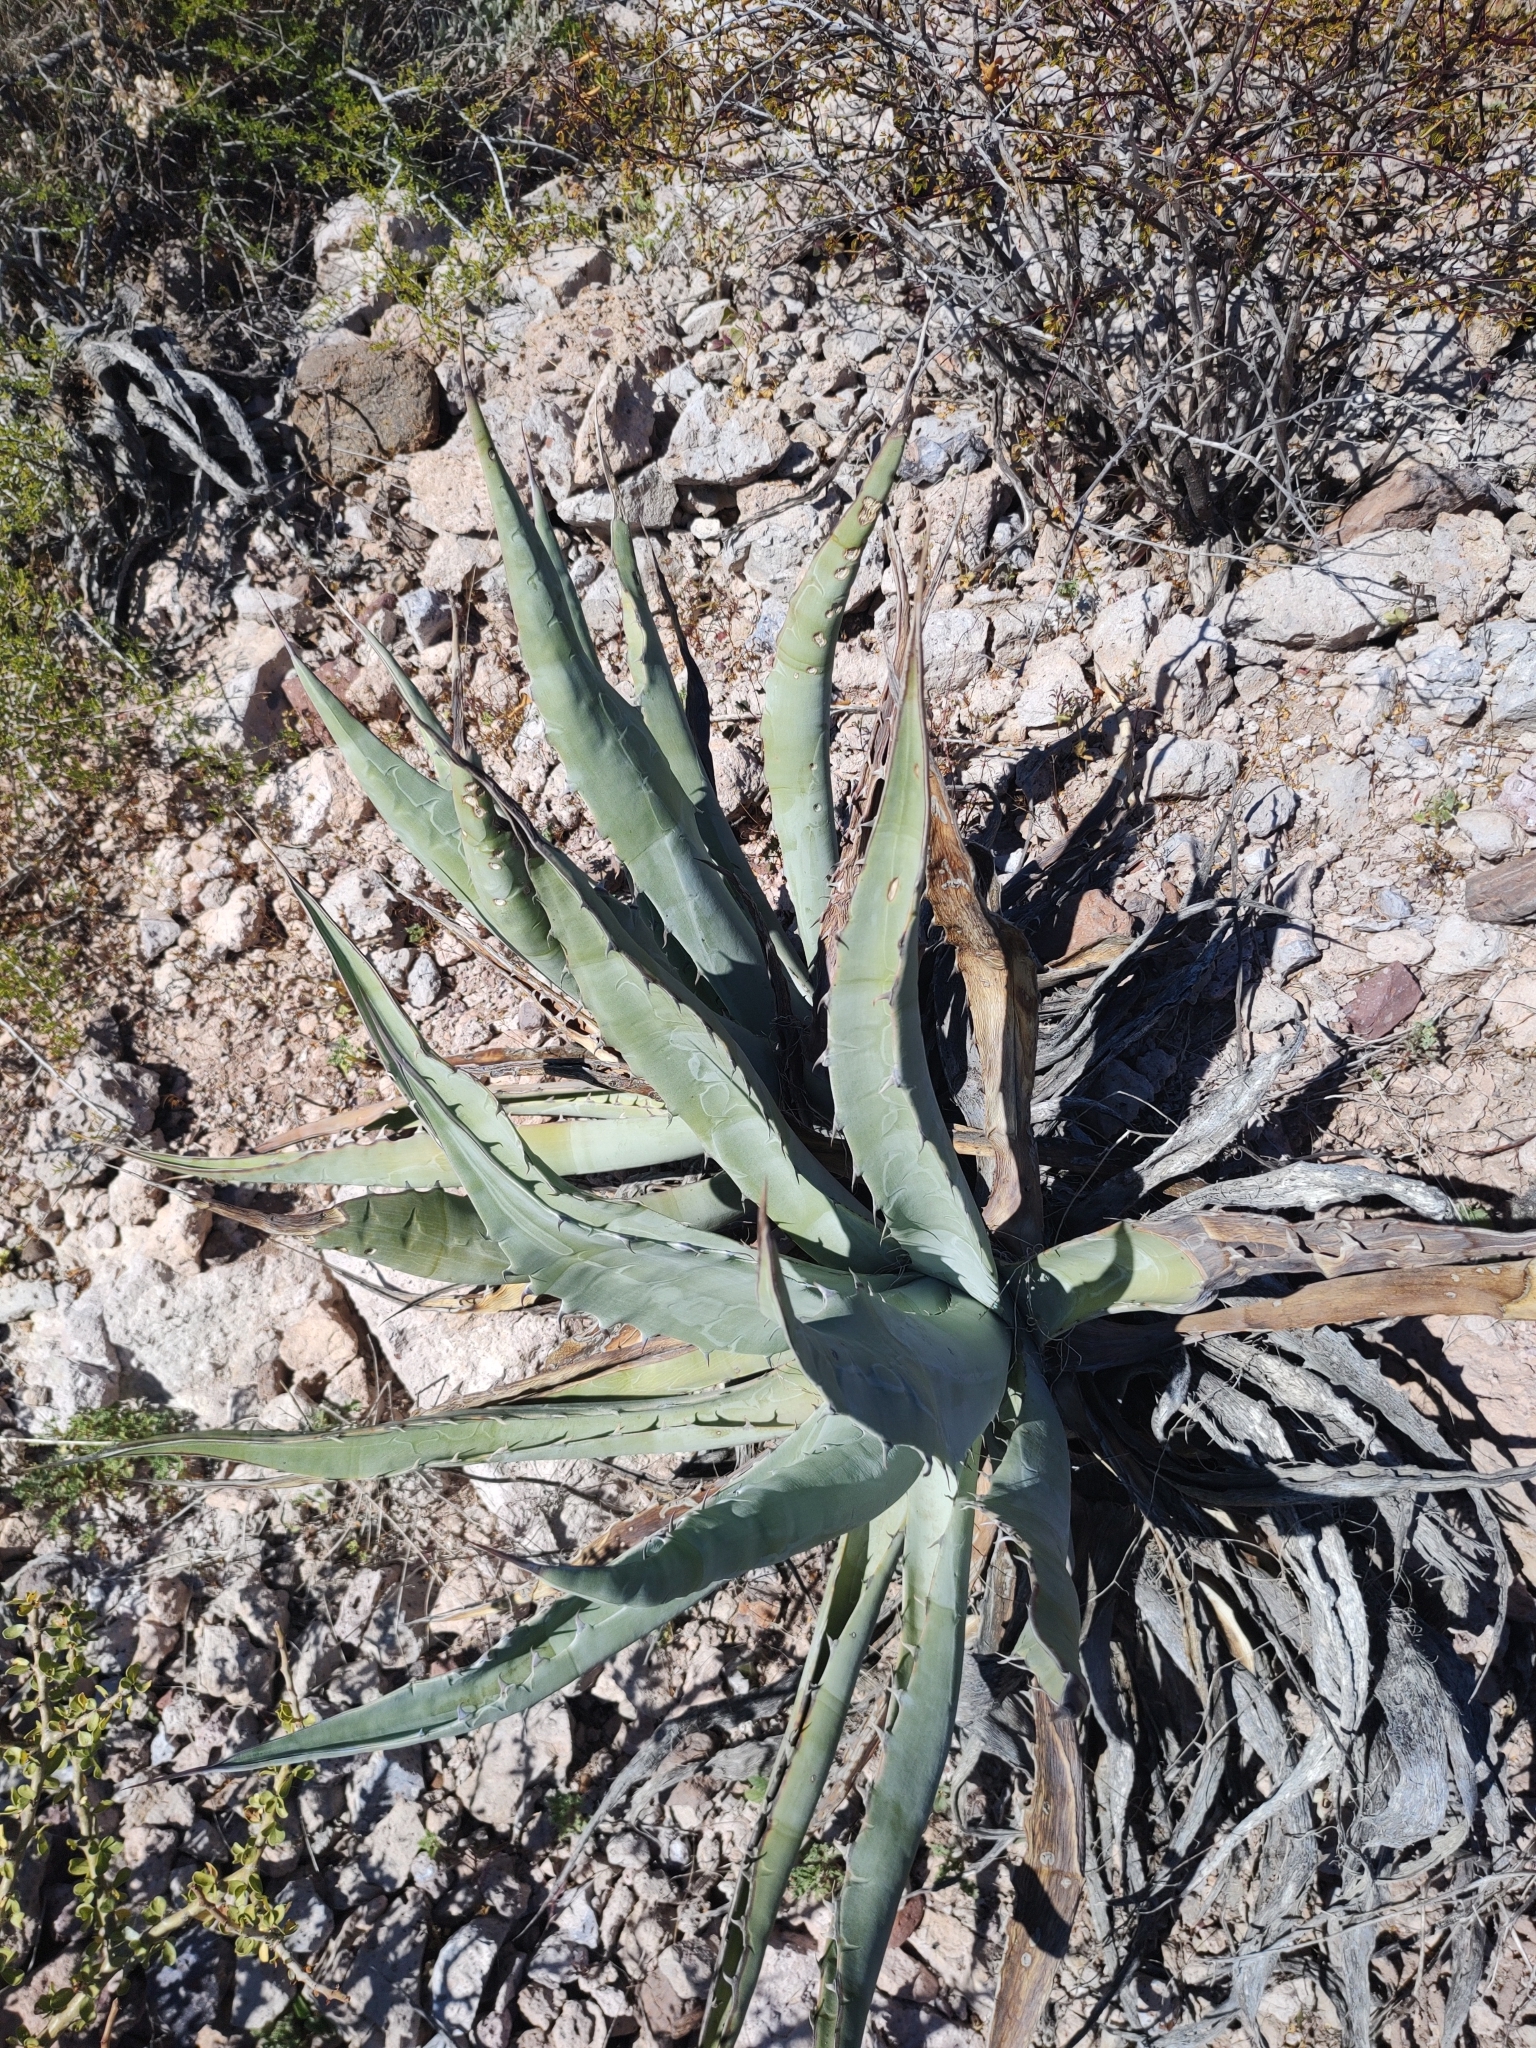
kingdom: Plantae
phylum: Tracheophyta
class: Liliopsida
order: Asparagales
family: Asparagaceae
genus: Agave
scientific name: Agave sobria
